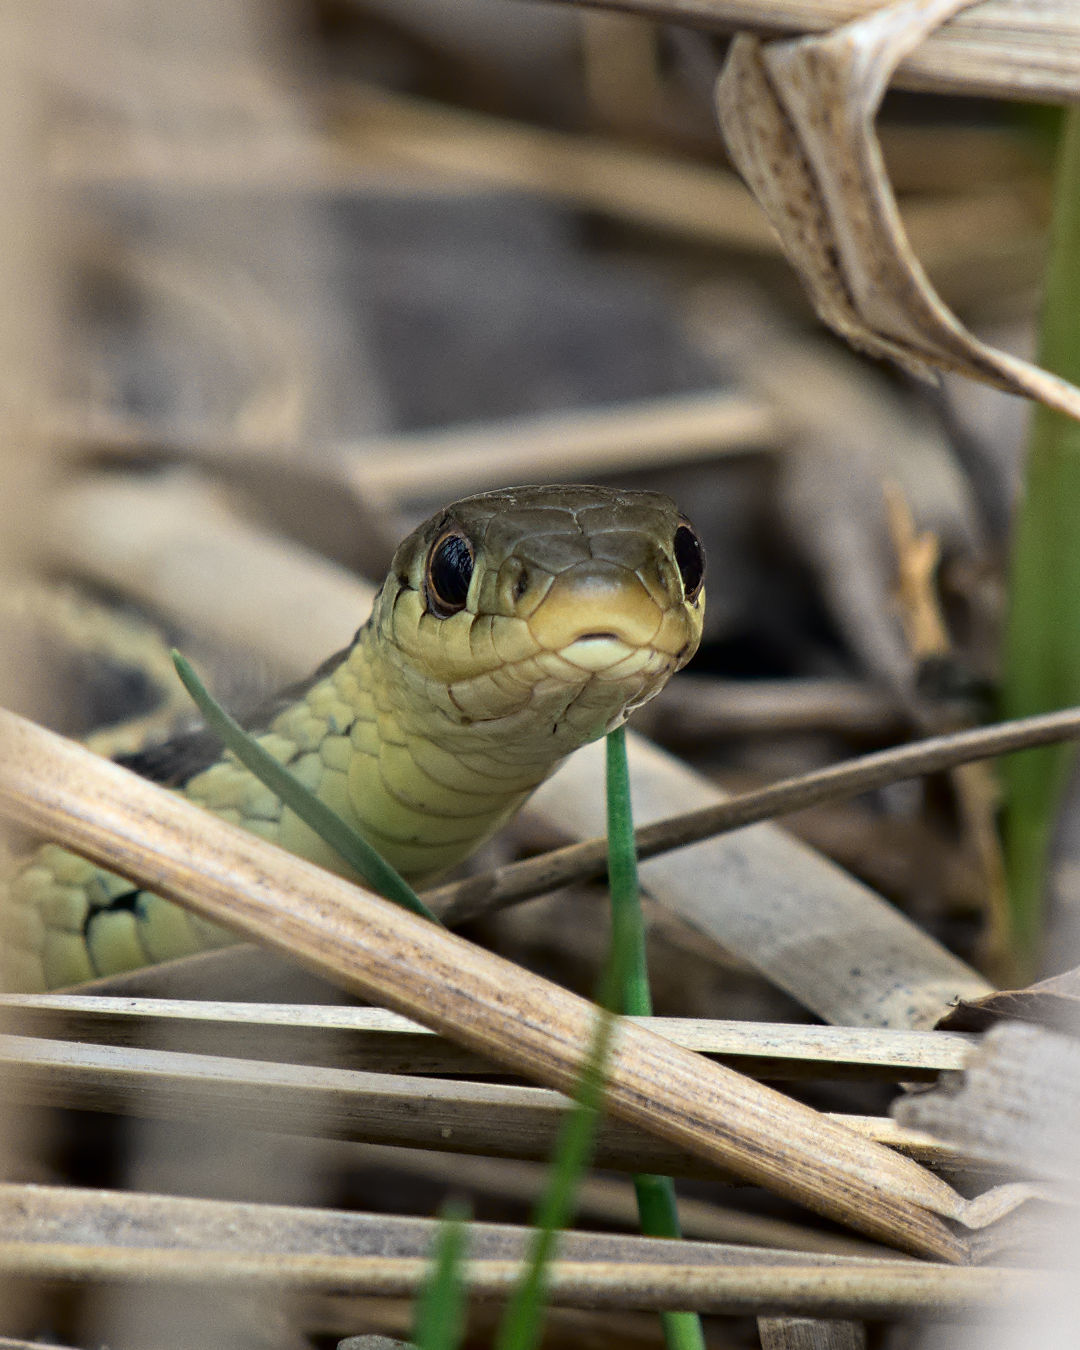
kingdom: Animalia
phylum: Chordata
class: Squamata
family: Colubridae
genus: Thamnophis
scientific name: Thamnophis sirtalis
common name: Common garter snake
